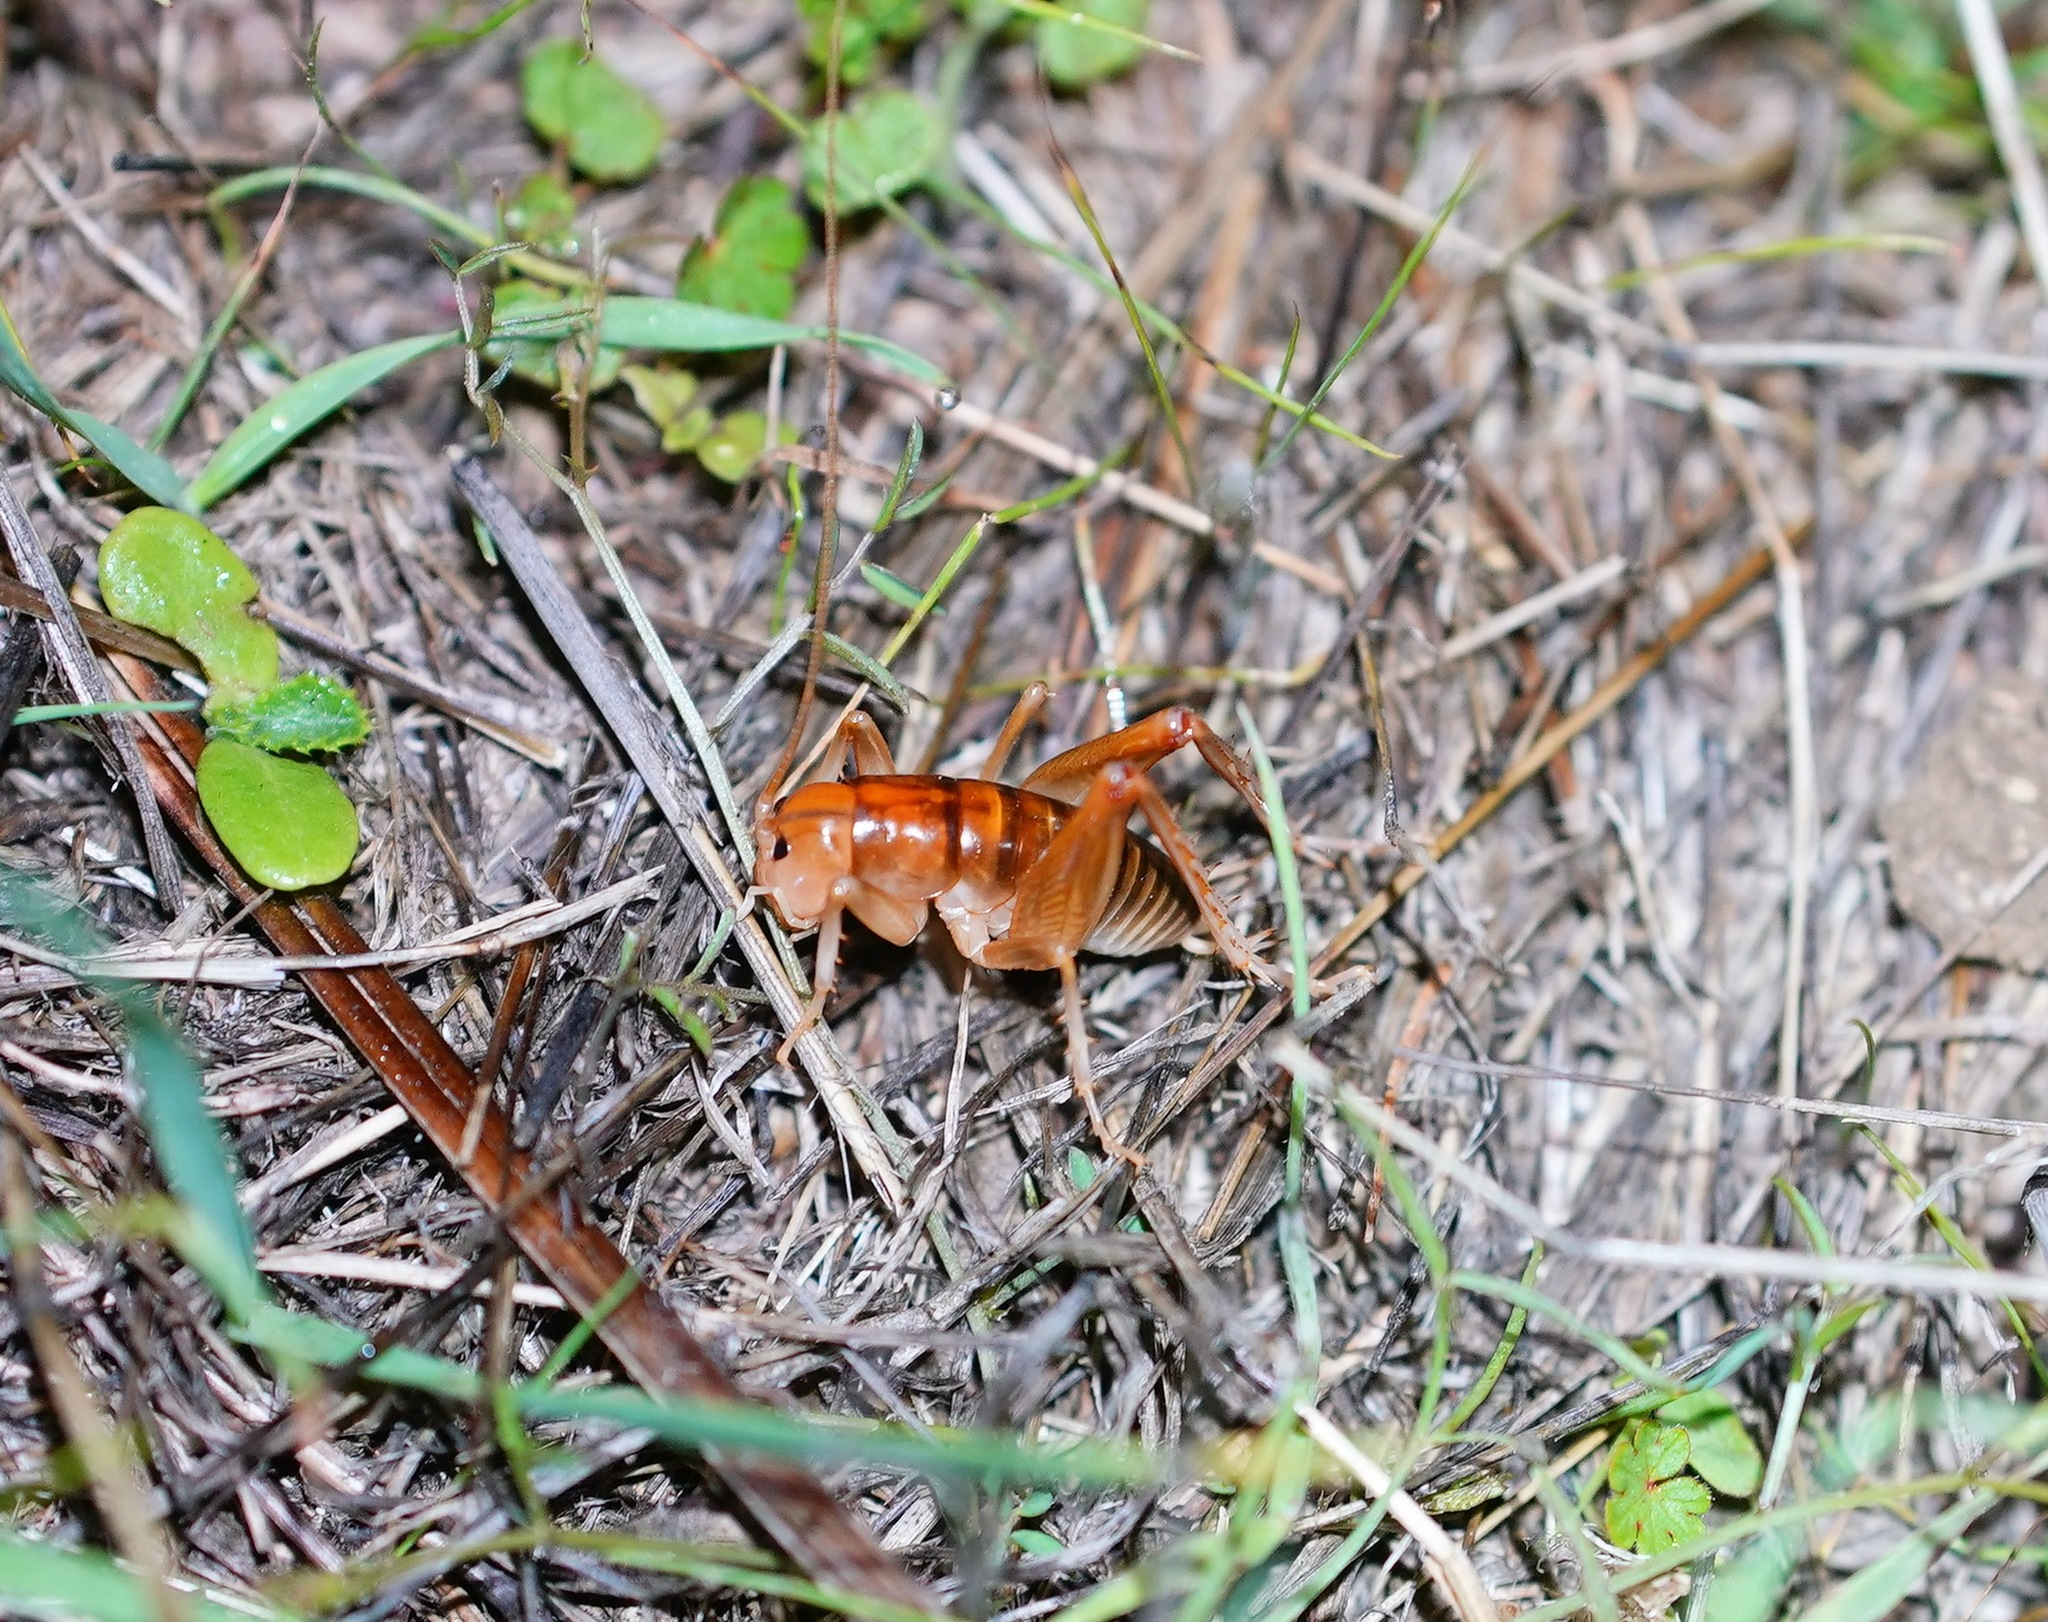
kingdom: Animalia
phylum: Arthropoda
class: Insecta
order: Orthoptera
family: Rhaphidophoridae
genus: Ceuthophilus
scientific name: Ceuthophilus californianus
